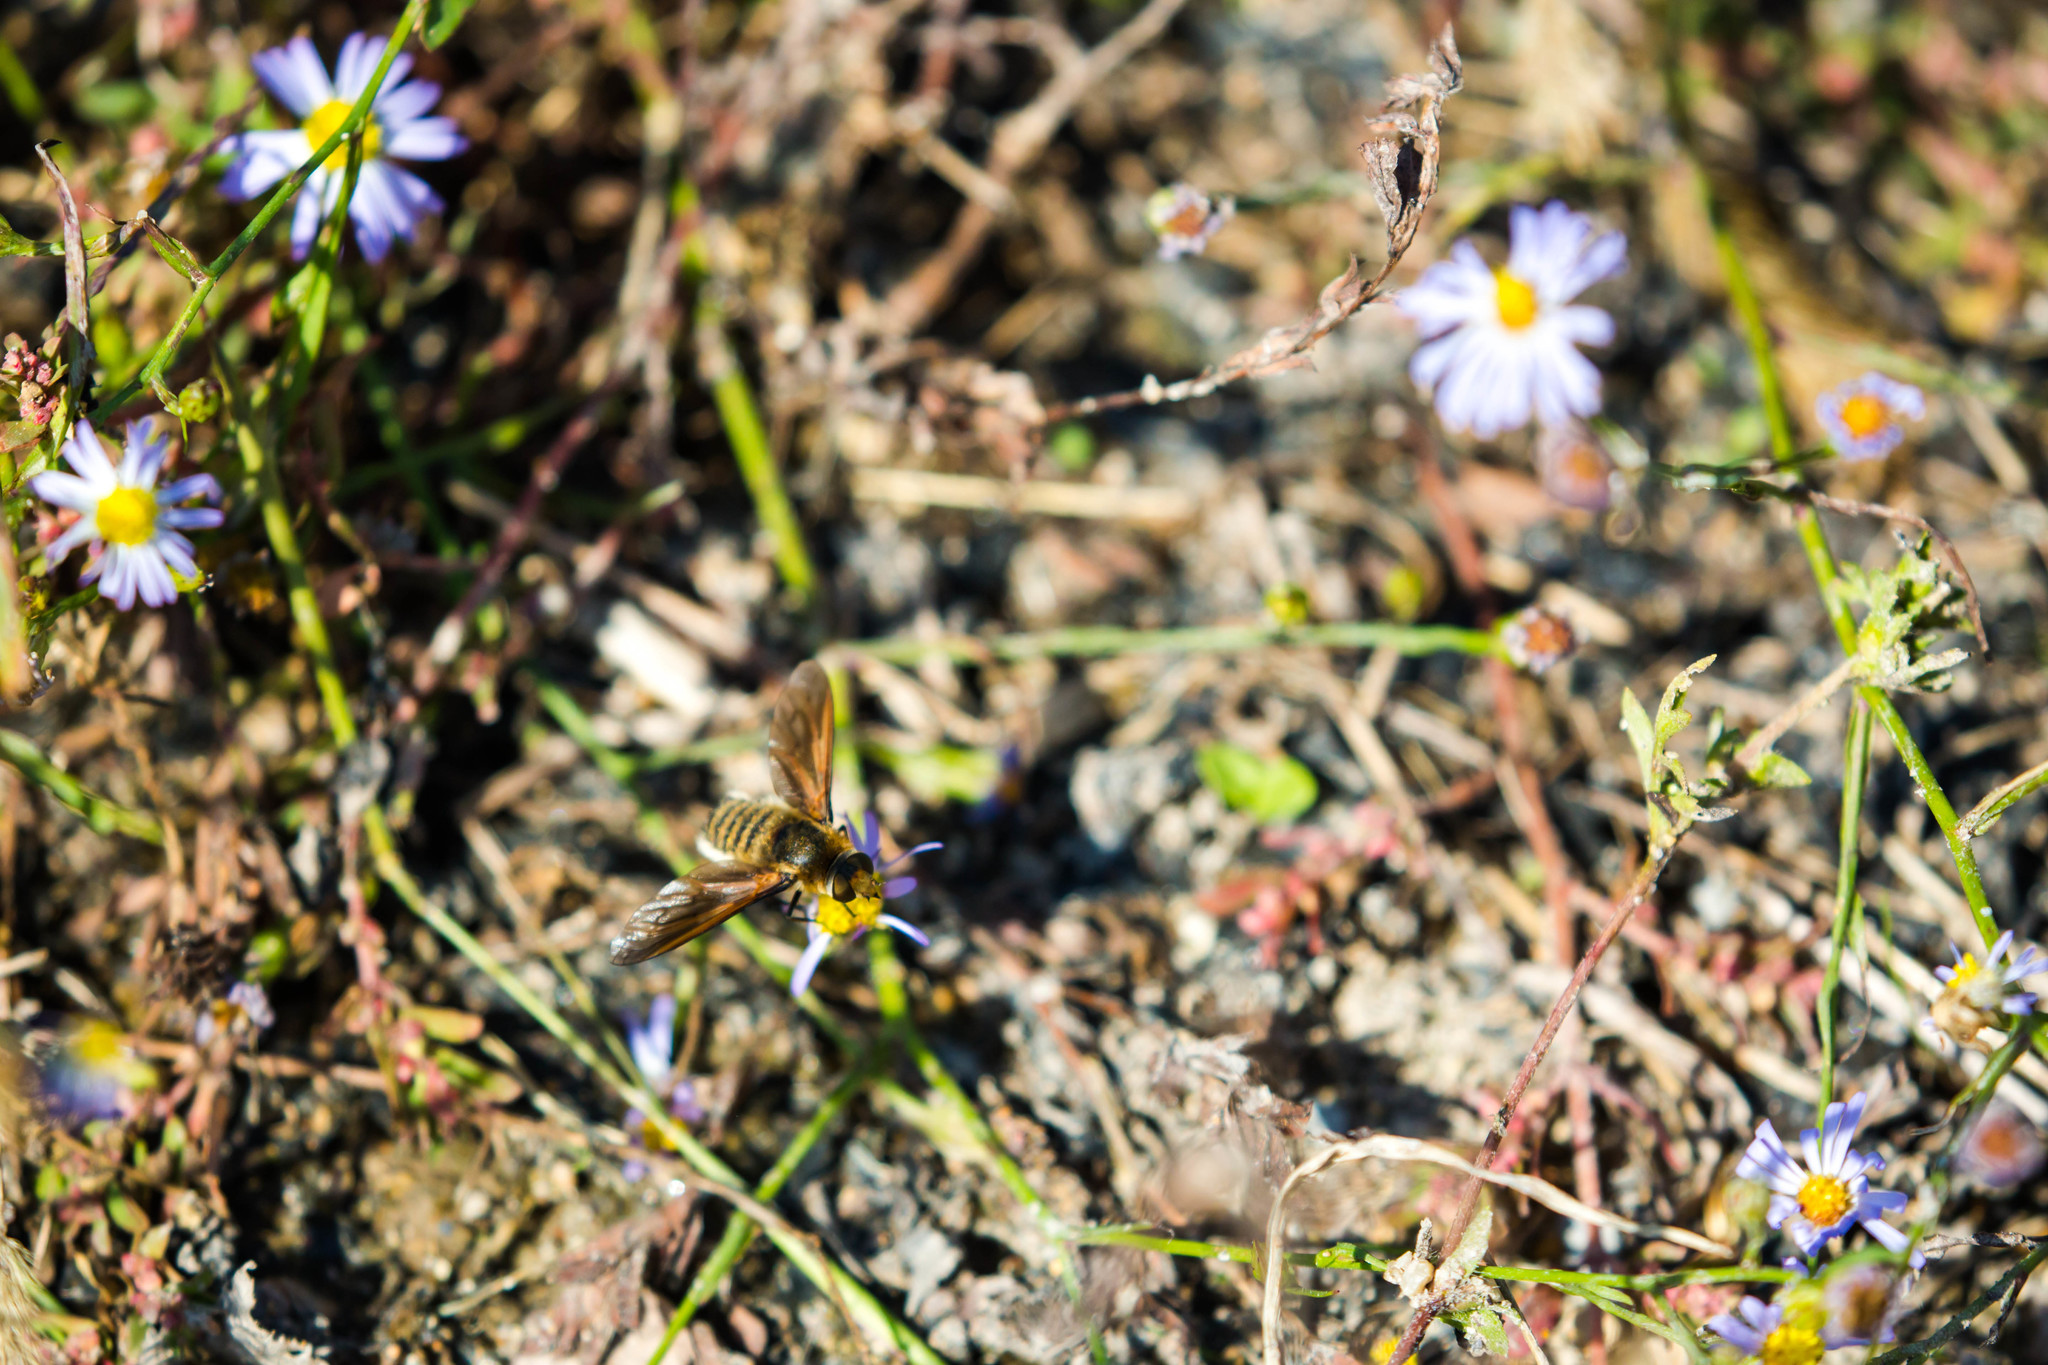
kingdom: Animalia
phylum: Arthropoda
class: Insecta
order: Diptera
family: Bombyliidae
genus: Poecilanthrax
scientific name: Poecilanthrax lucifer
